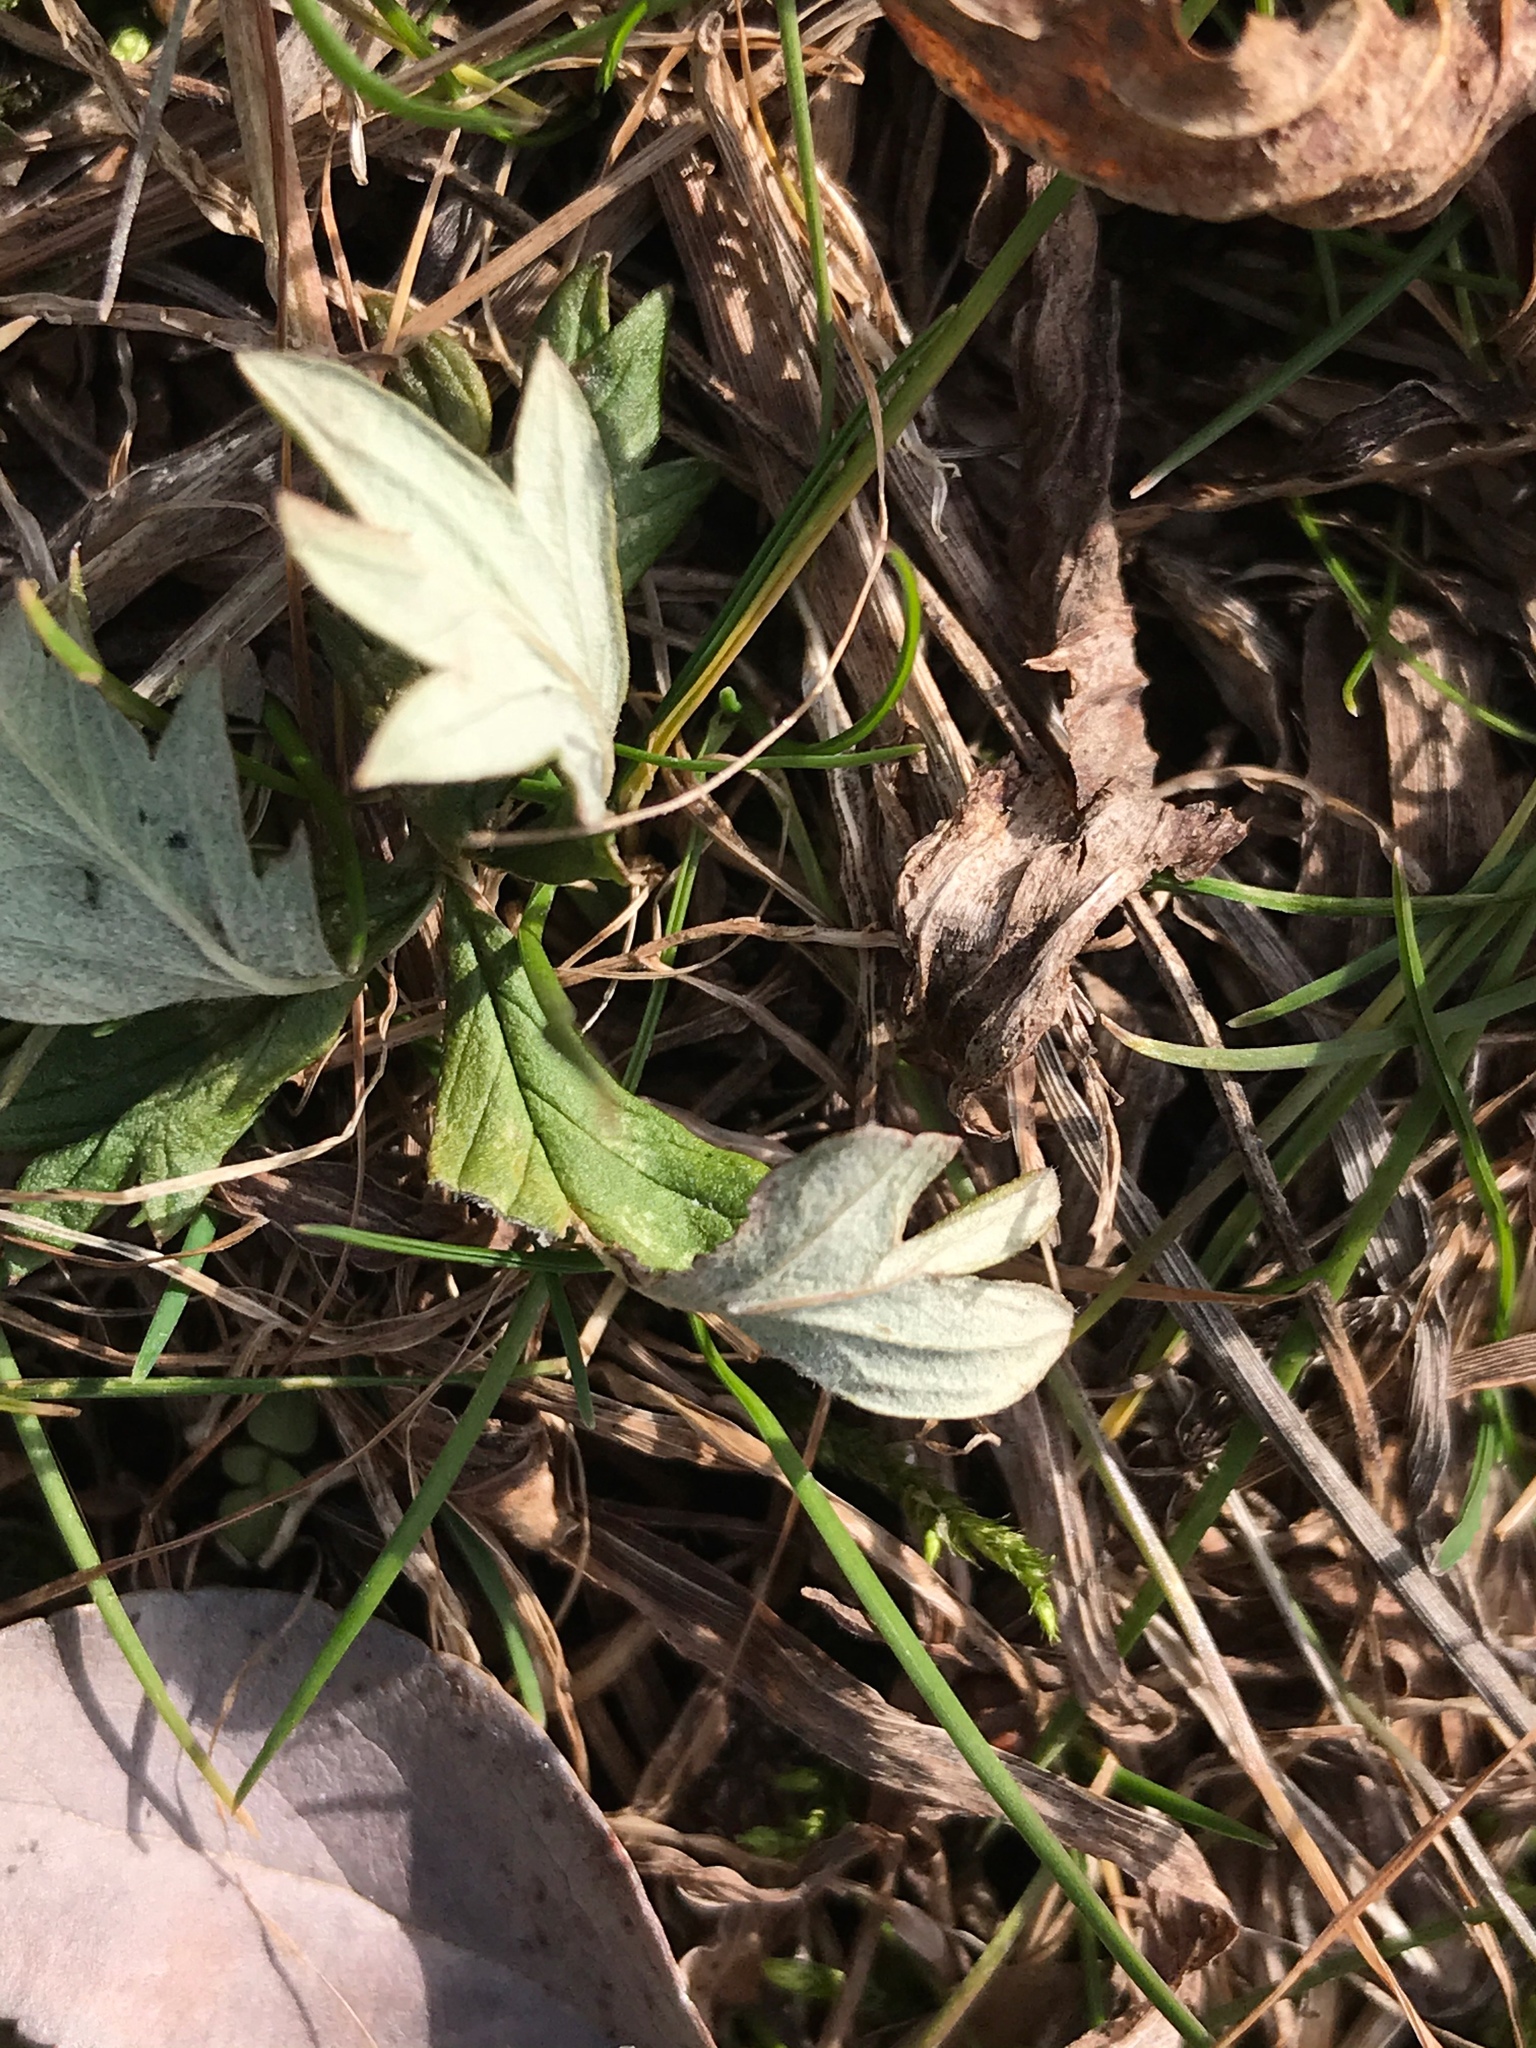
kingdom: Plantae
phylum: Tracheophyta
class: Magnoliopsida
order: Rosales
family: Rosaceae
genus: Potentilla
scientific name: Potentilla argentea
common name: Hoary cinquefoil
